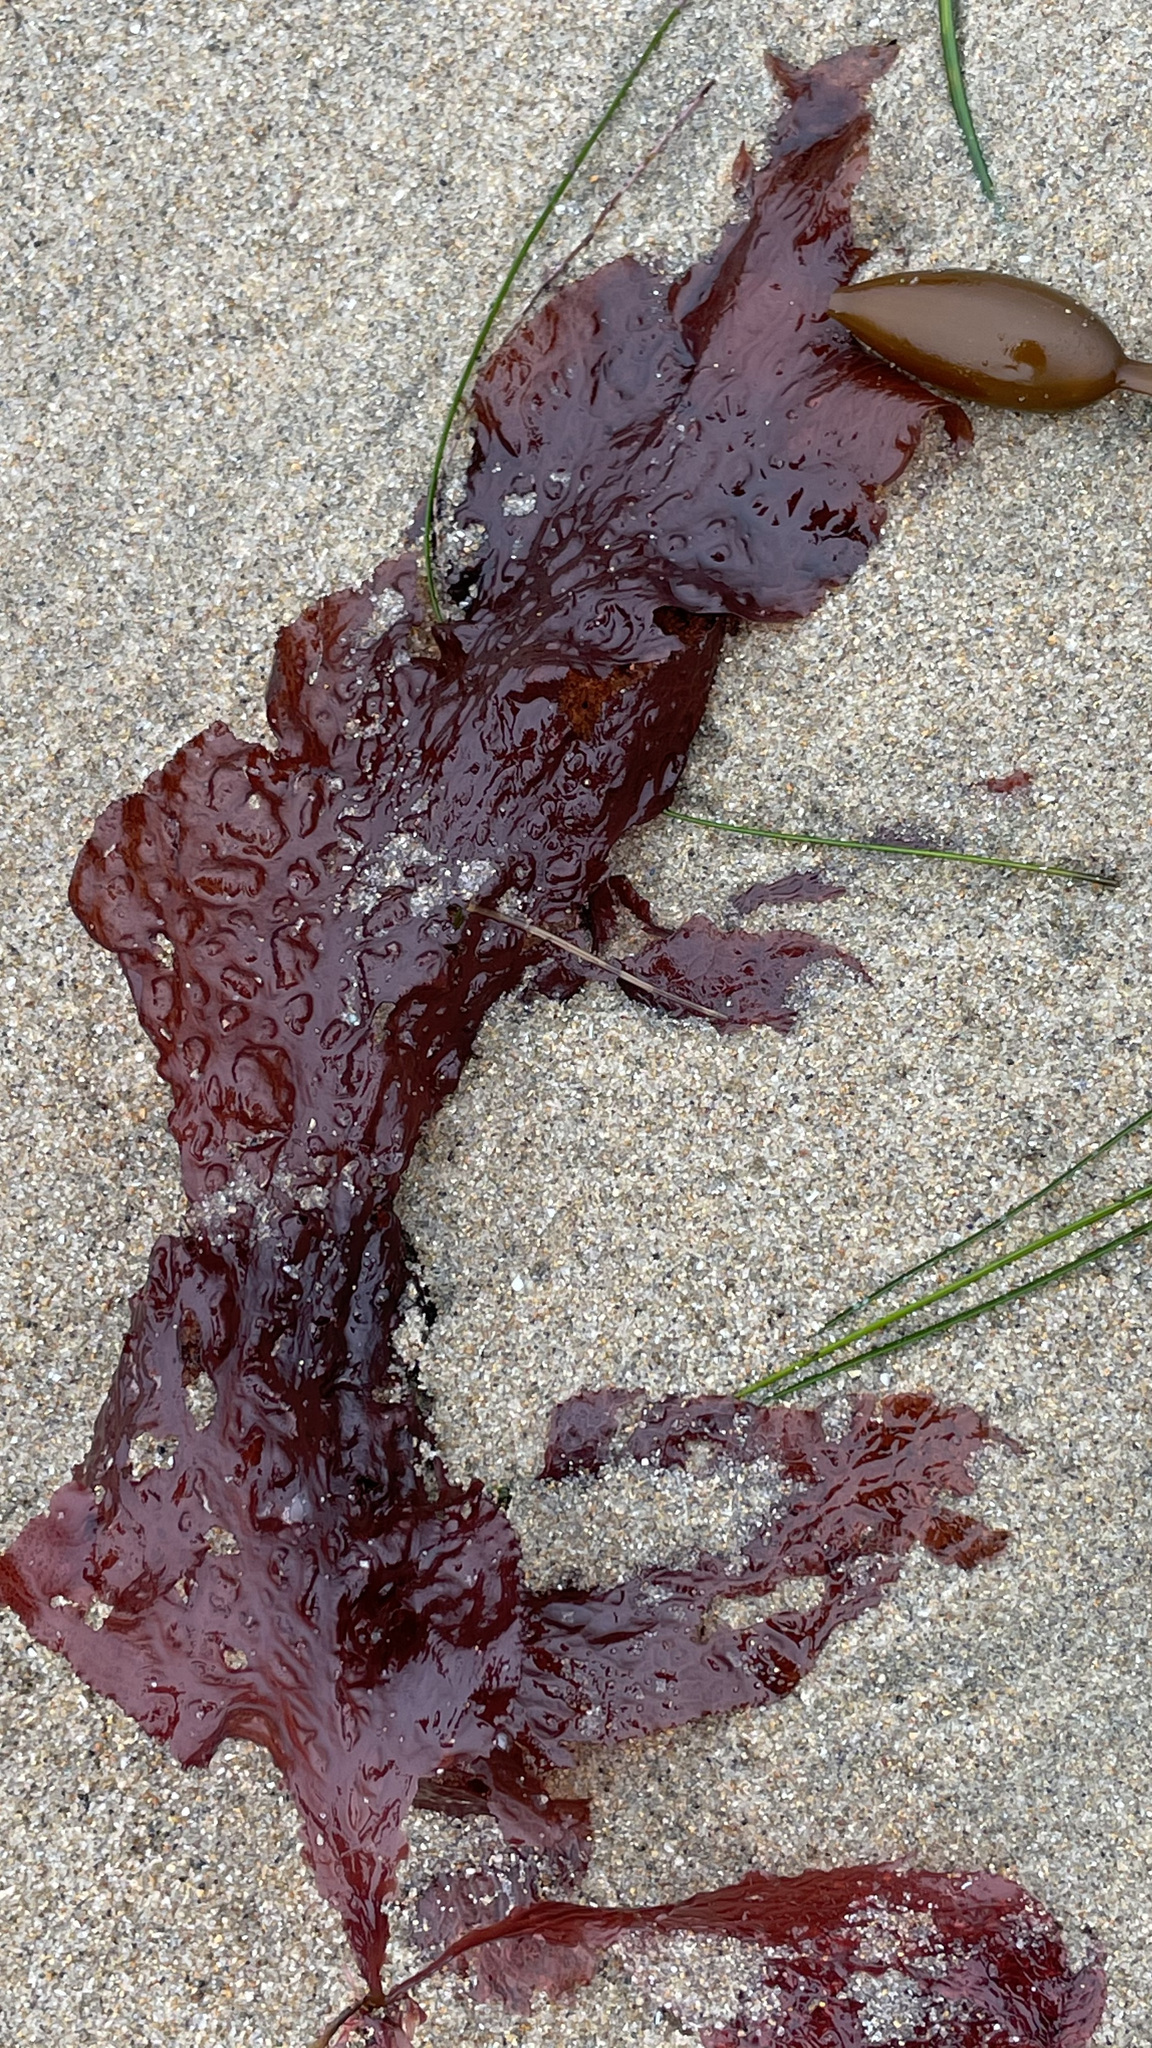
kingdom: Plantae
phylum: Rhodophyta
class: Florideophyceae
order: Ceramiales
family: Delesseriaceae
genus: Polyneura
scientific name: Polyneura latissima
